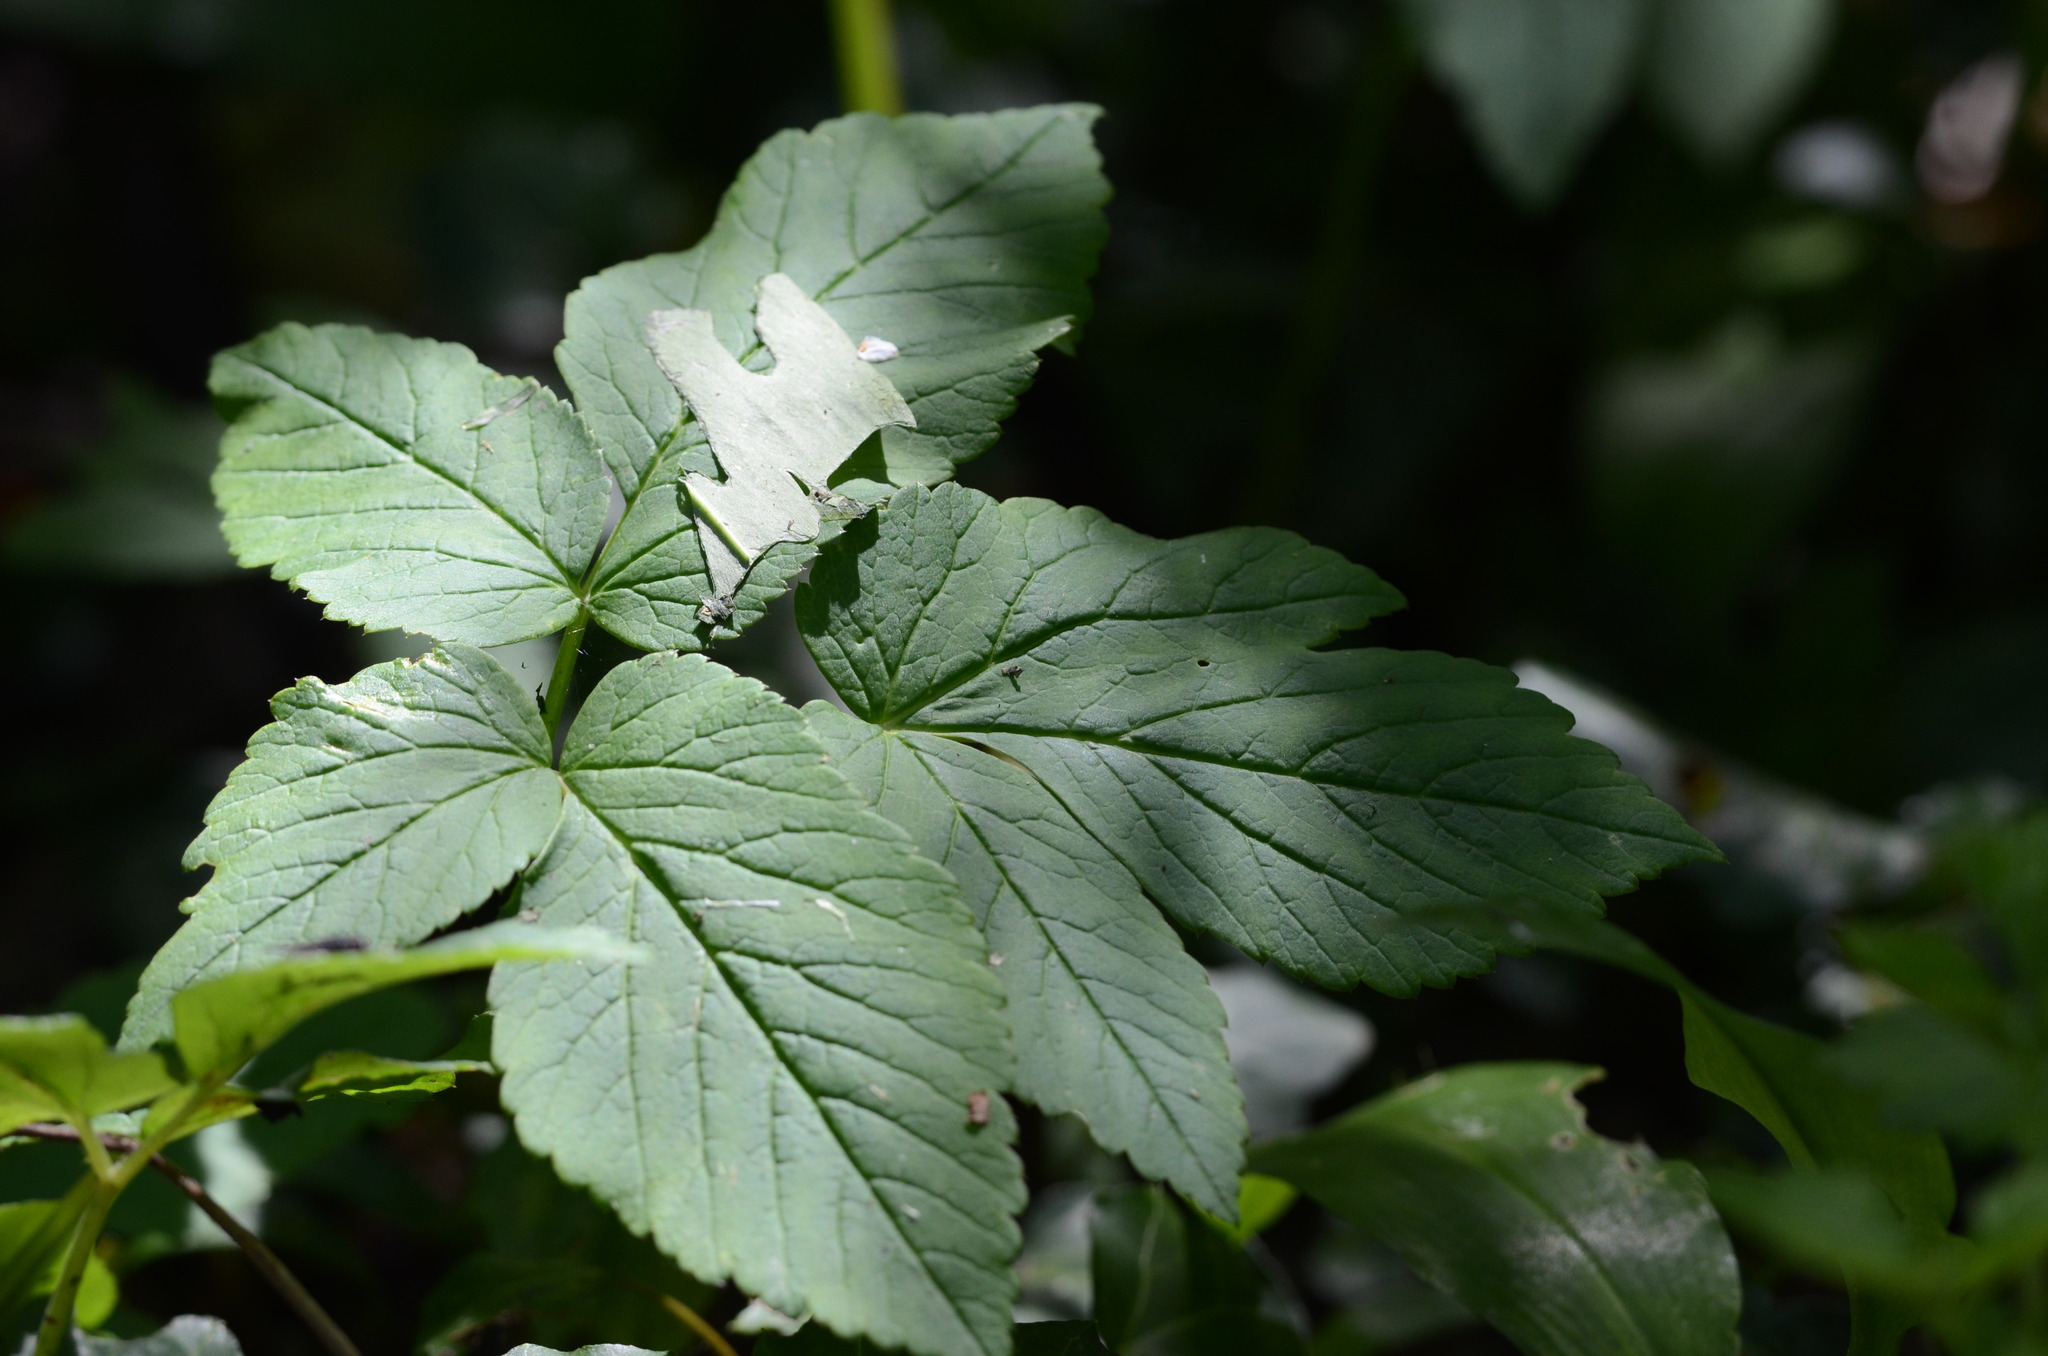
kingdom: Plantae
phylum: Tracheophyta
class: Magnoliopsida
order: Apiales
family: Apiaceae
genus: Aegopodium
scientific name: Aegopodium podagraria
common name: Ground-elder
